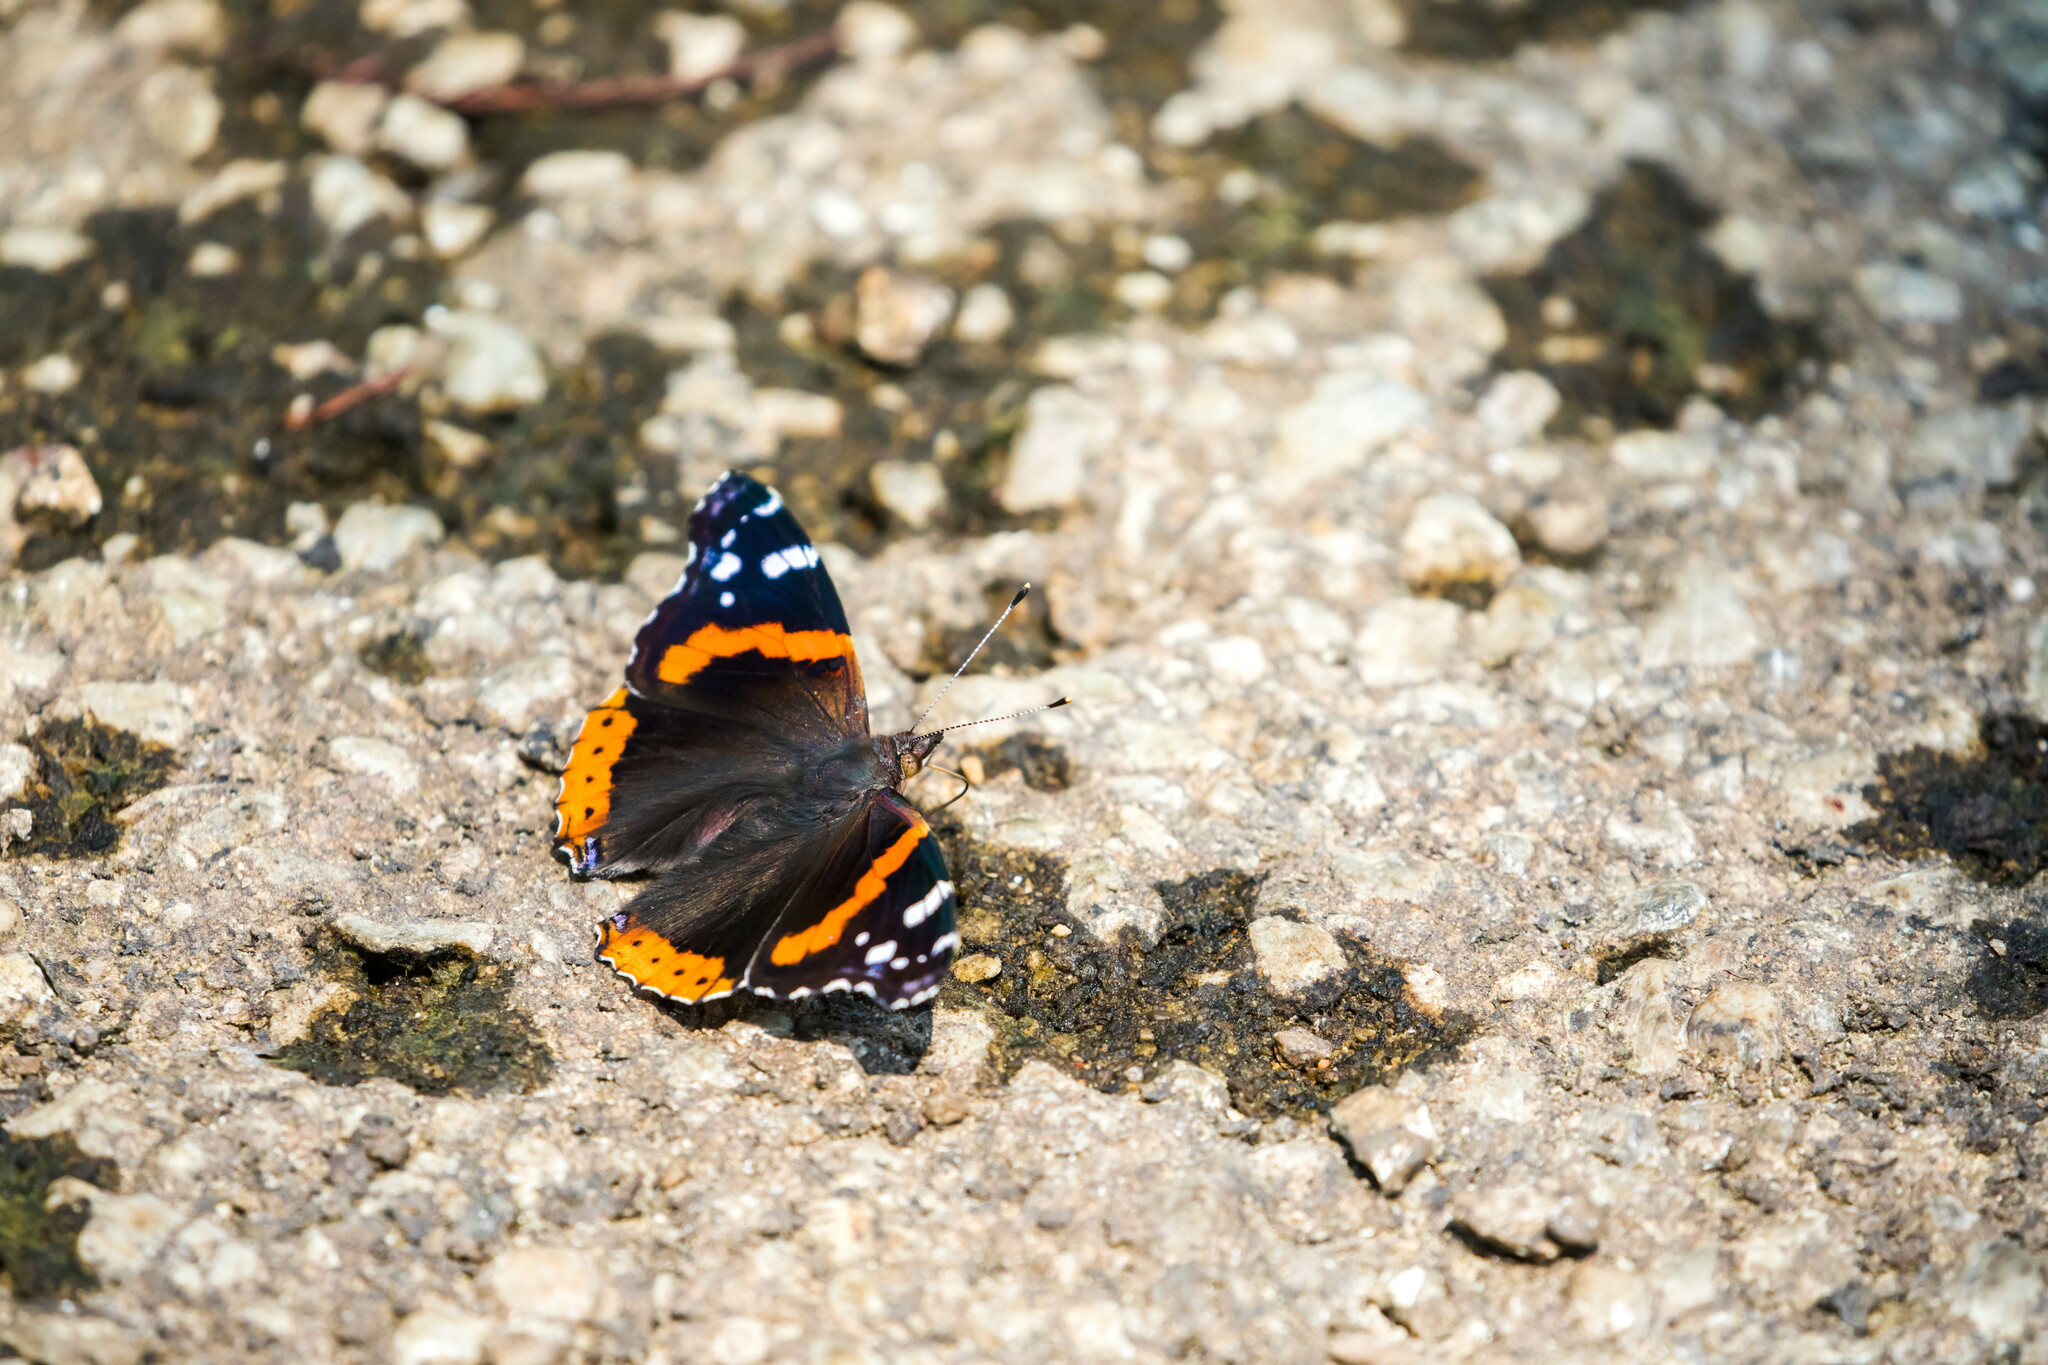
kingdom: Animalia
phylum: Arthropoda
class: Insecta
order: Lepidoptera
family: Nymphalidae
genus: Vanessa
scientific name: Vanessa atalanta
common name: Red admiral
